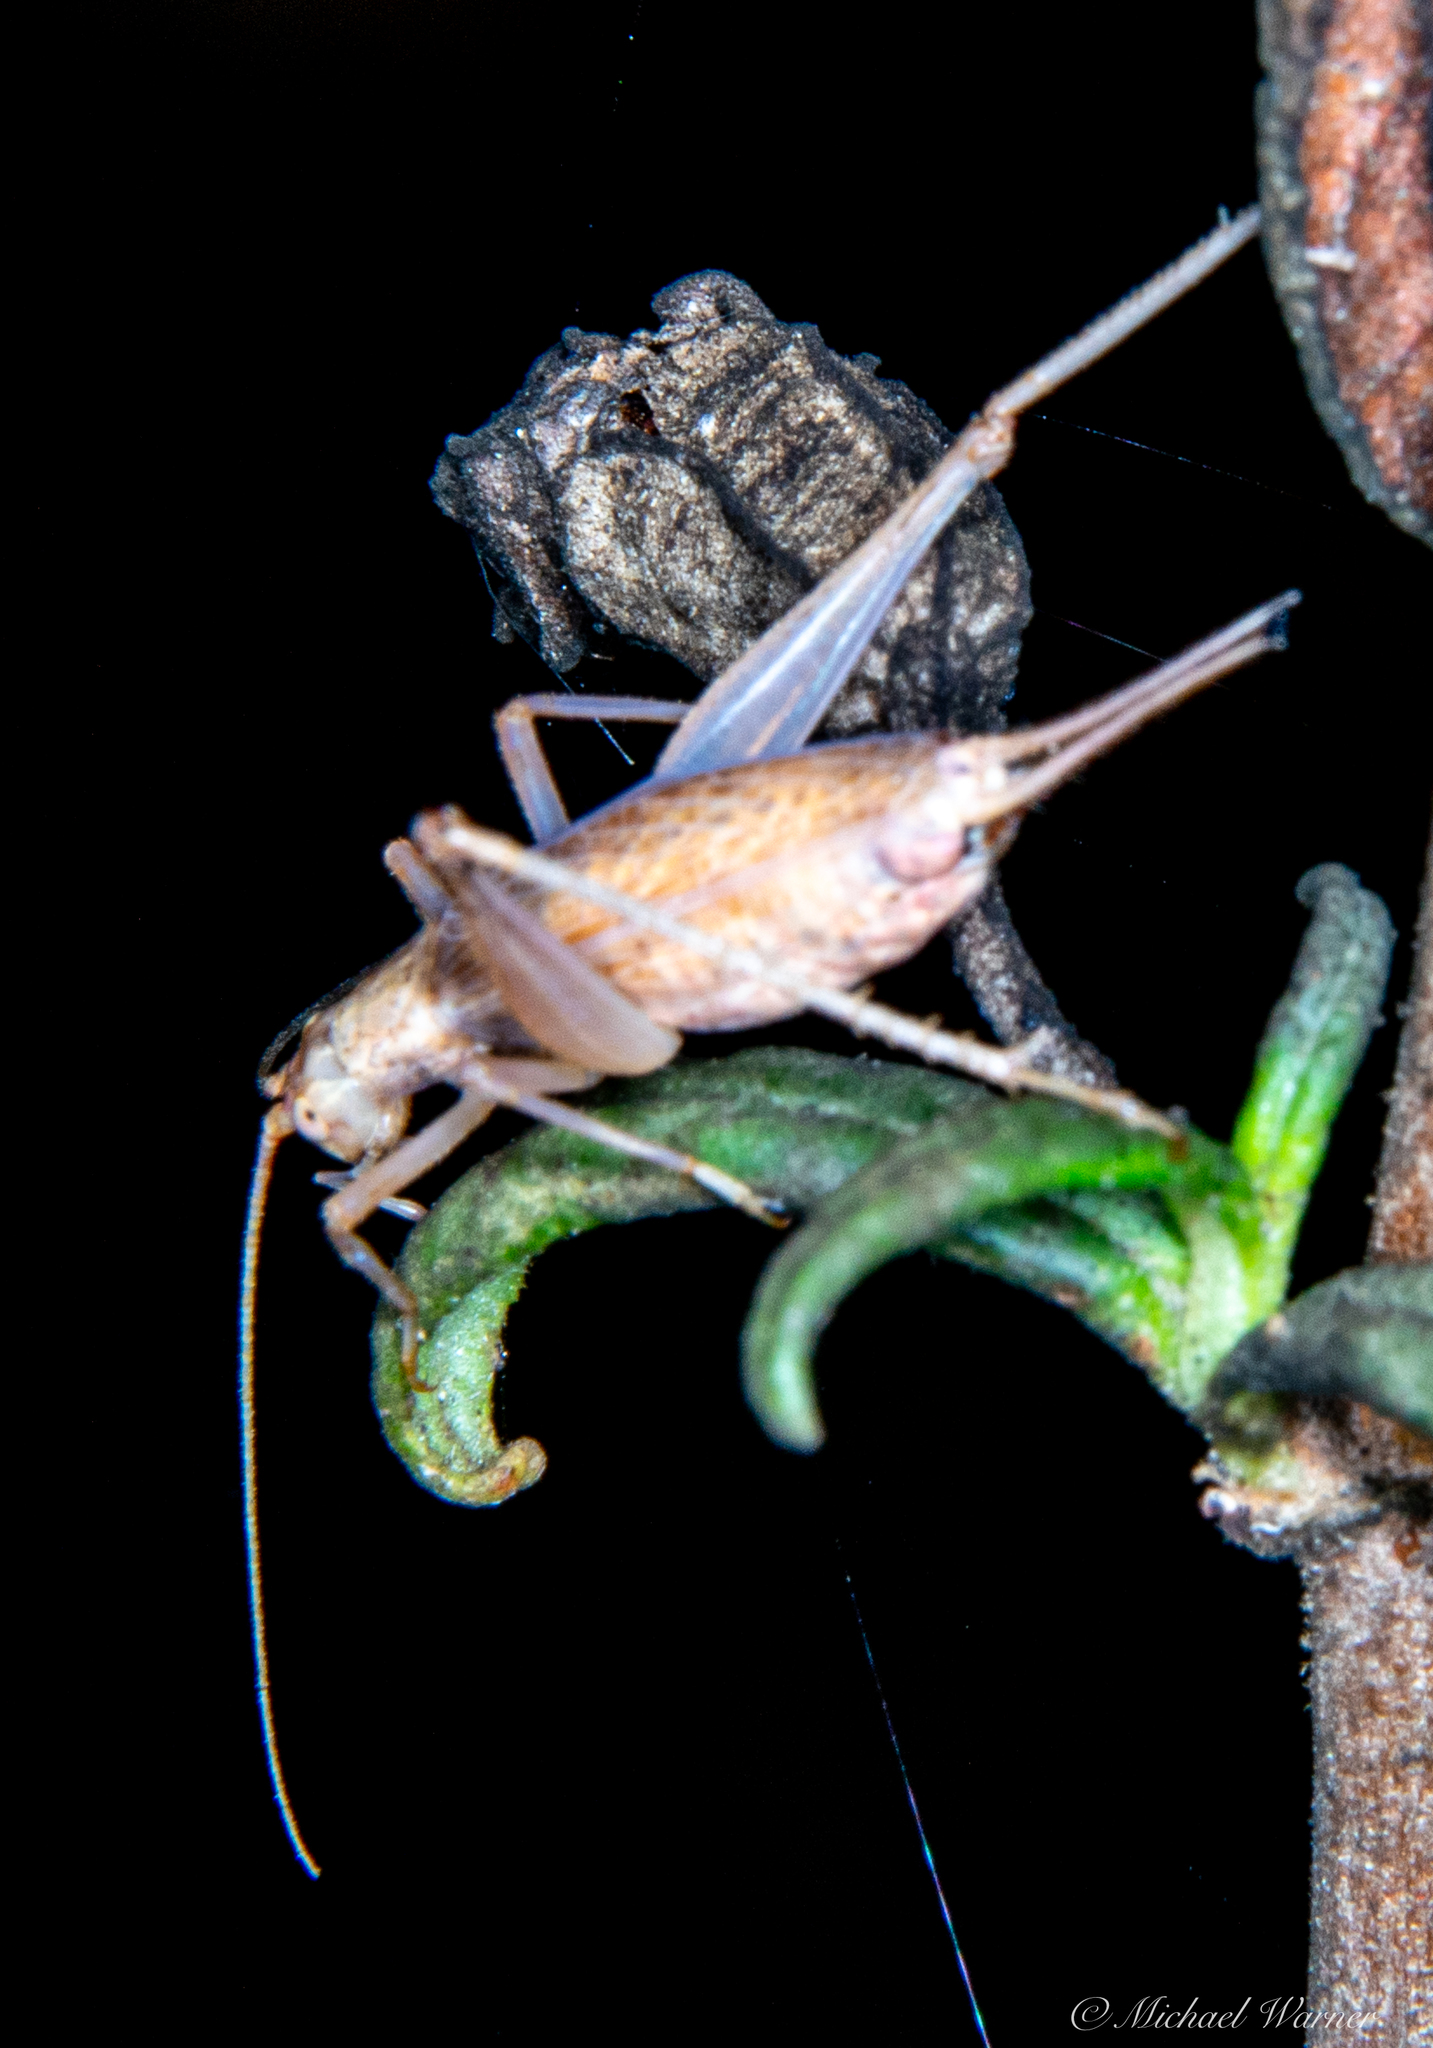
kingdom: Animalia
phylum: Arthropoda
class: Insecta
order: Orthoptera
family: Gryllidae
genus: Oecanthus
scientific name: Oecanthus californicus
